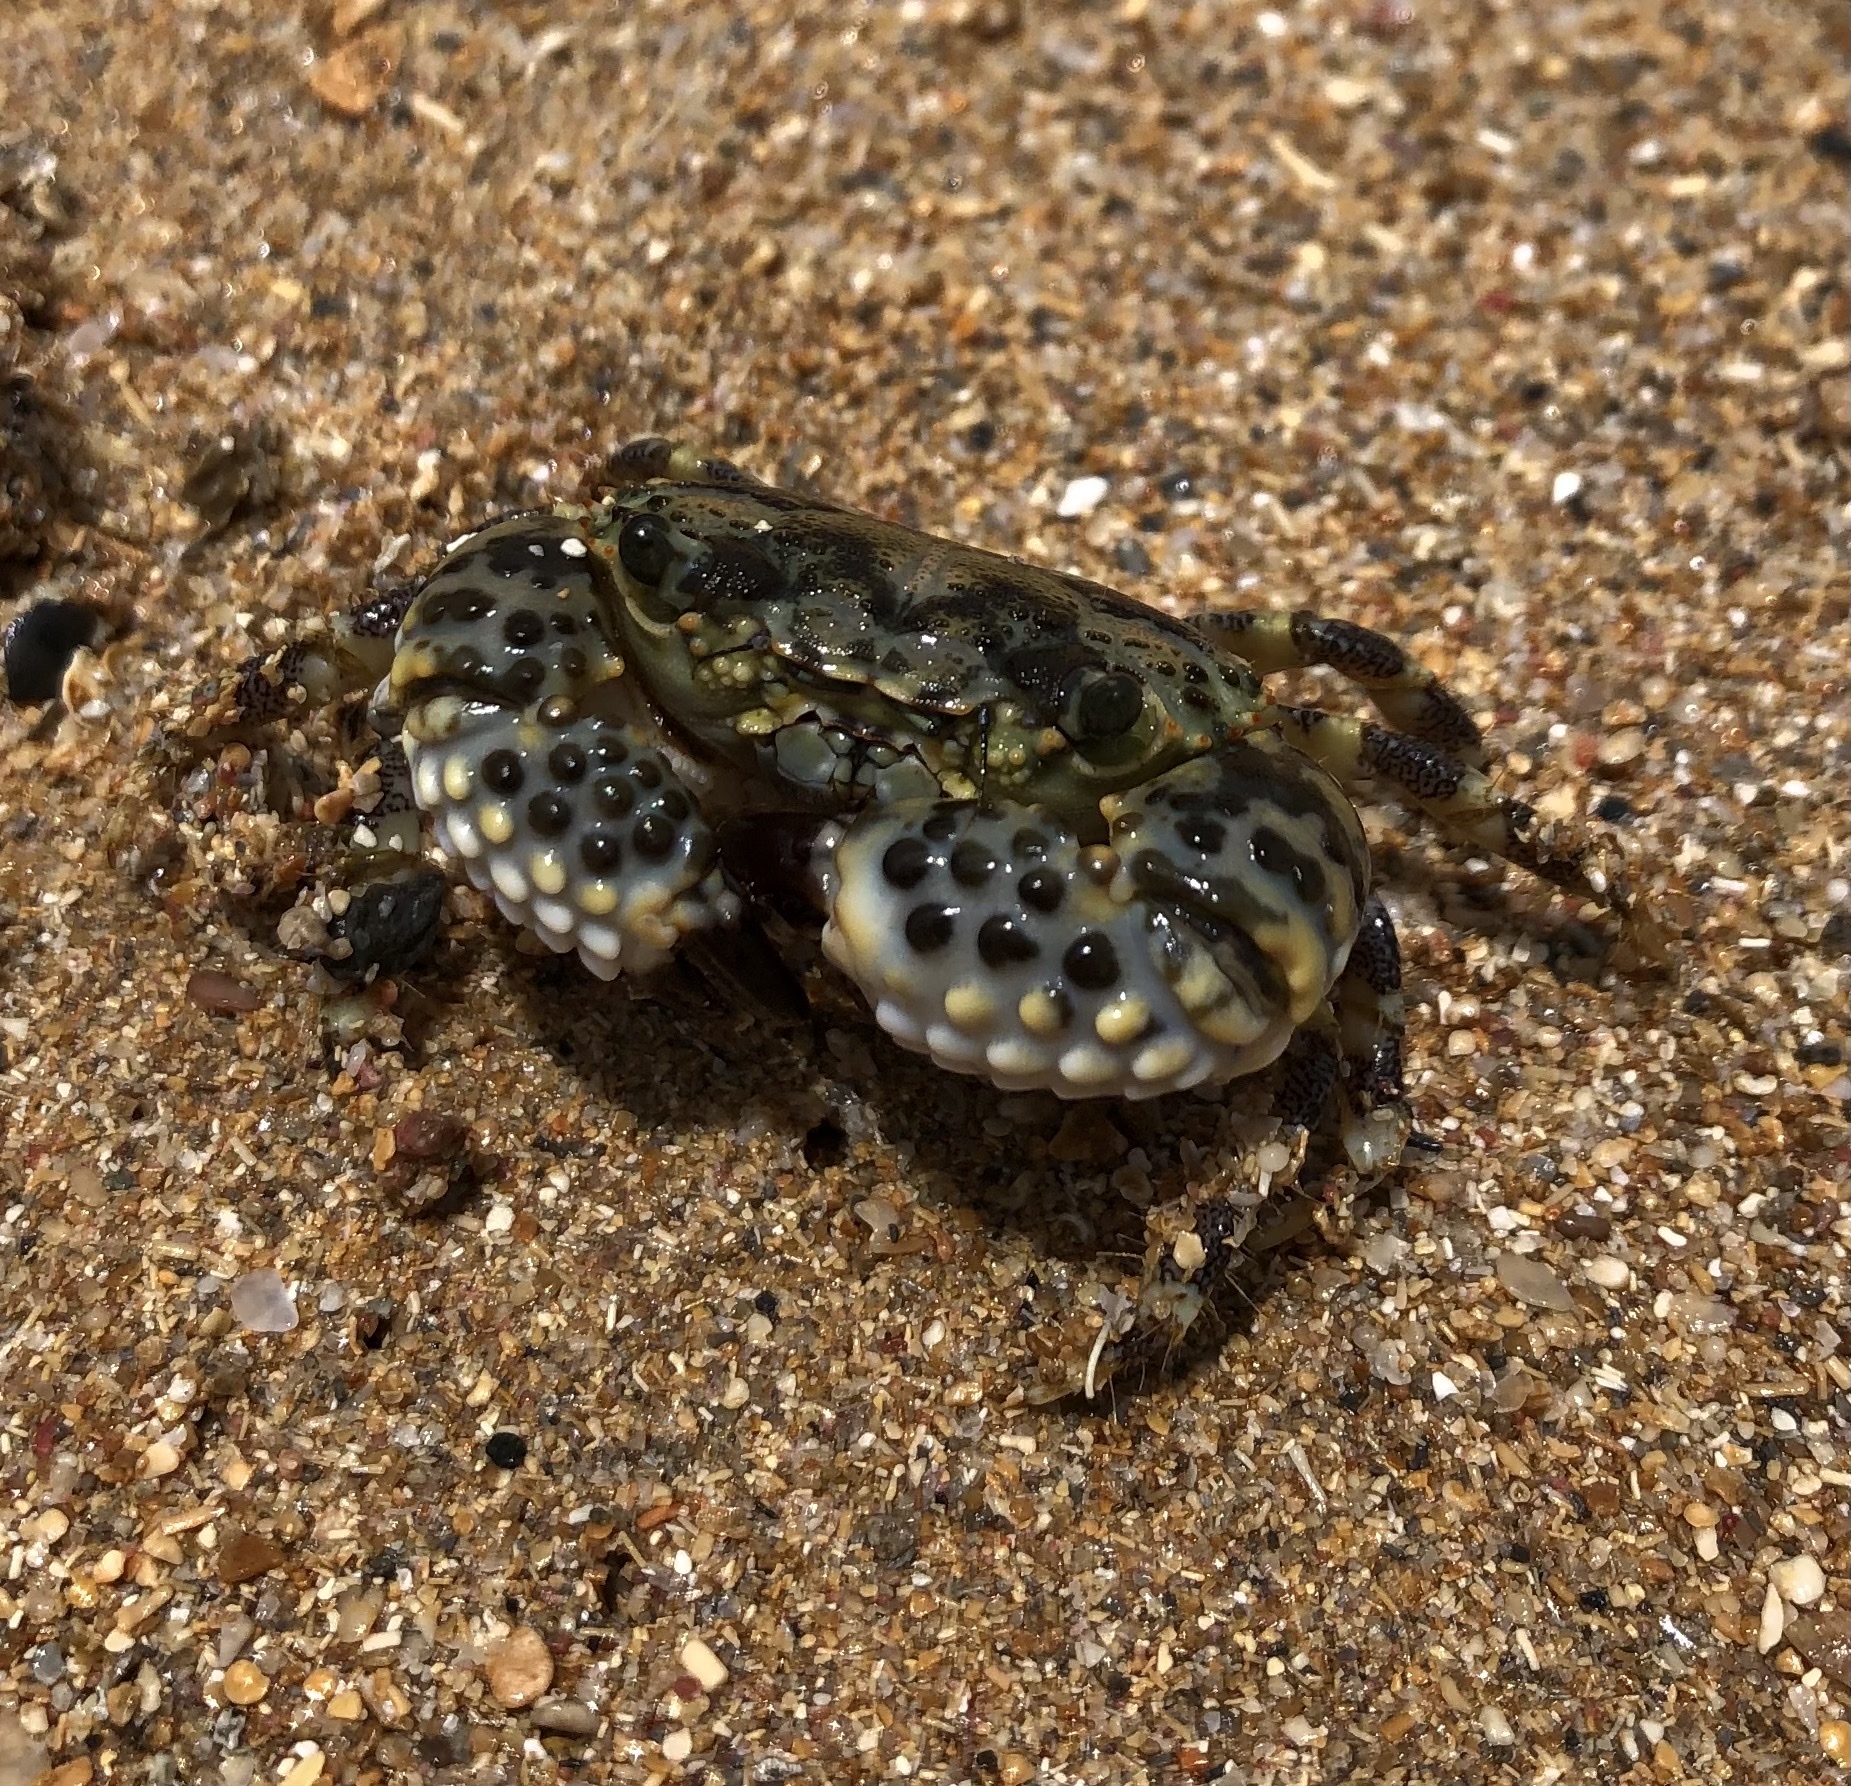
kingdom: Animalia
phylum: Arthropoda
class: Malacostraca
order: Decapoda
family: Eriphiidae
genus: Eriphia
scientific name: Eriphia gonagra
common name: Calico crab
